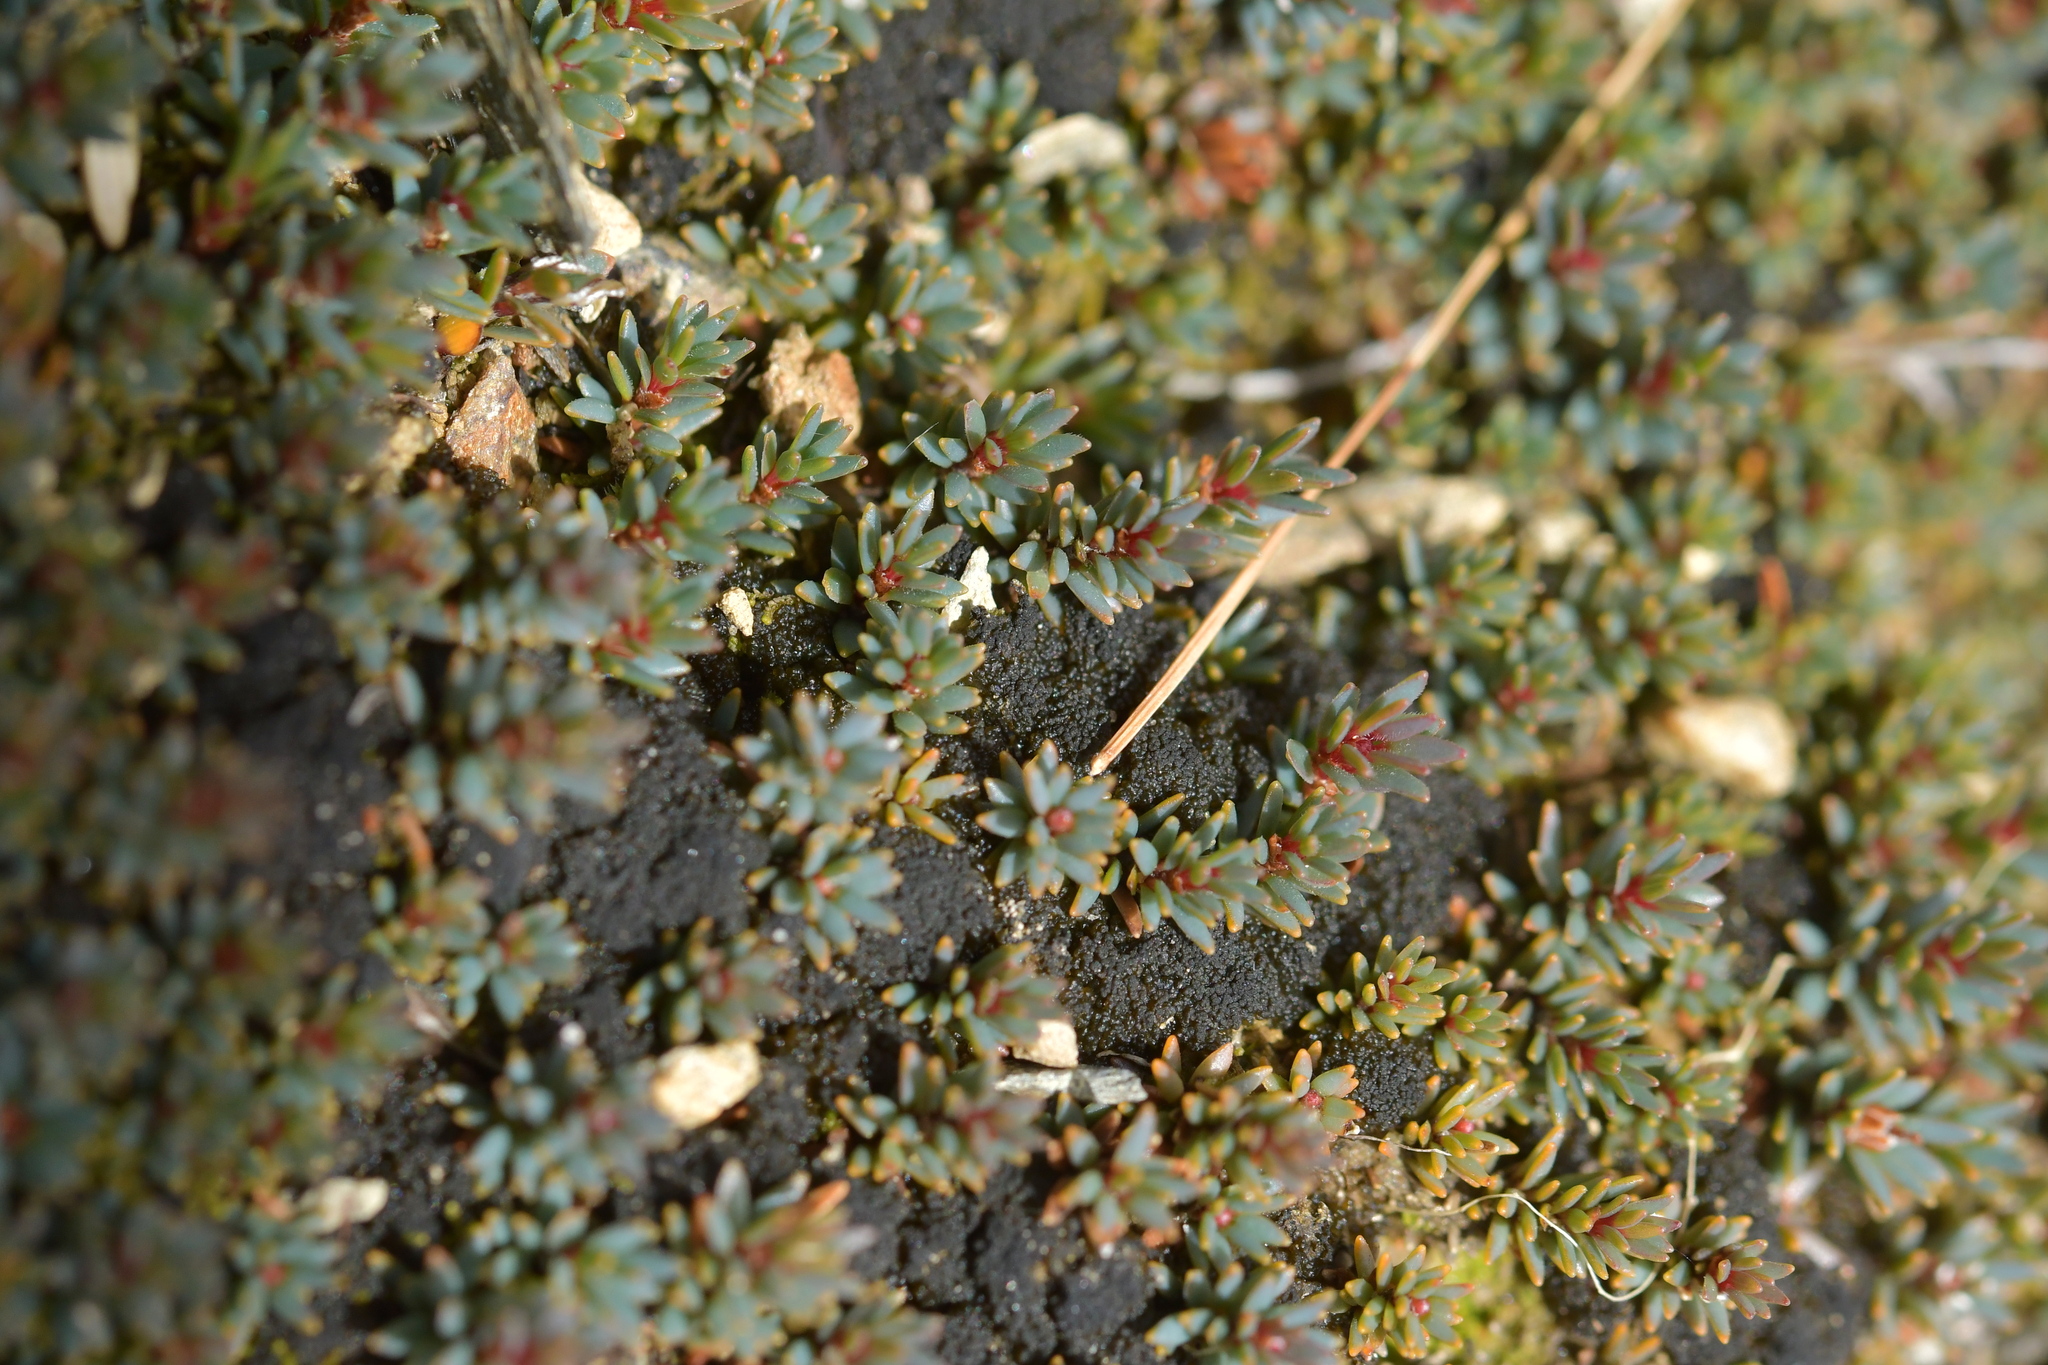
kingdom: Plantae
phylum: Tracheophyta
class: Magnoliopsida
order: Ericales
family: Ericaceae
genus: Pentachondra
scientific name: Pentachondra pumila
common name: Carpet-heath
